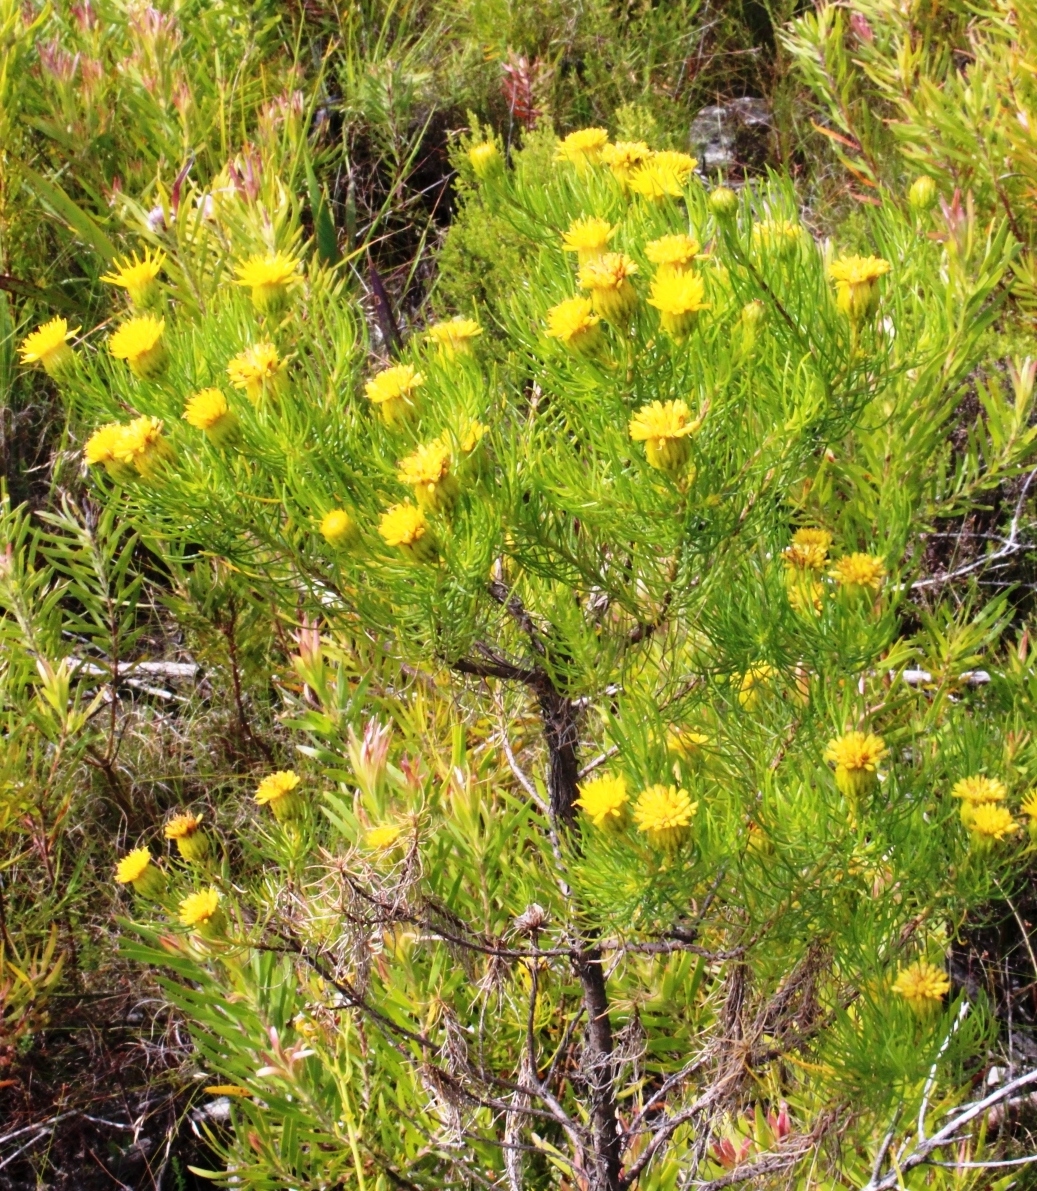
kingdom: Plantae
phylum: Tracheophyta
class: Magnoliopsida
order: Asterales
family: Asteraceae
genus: Pteronia
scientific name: Pteronia camphorata
